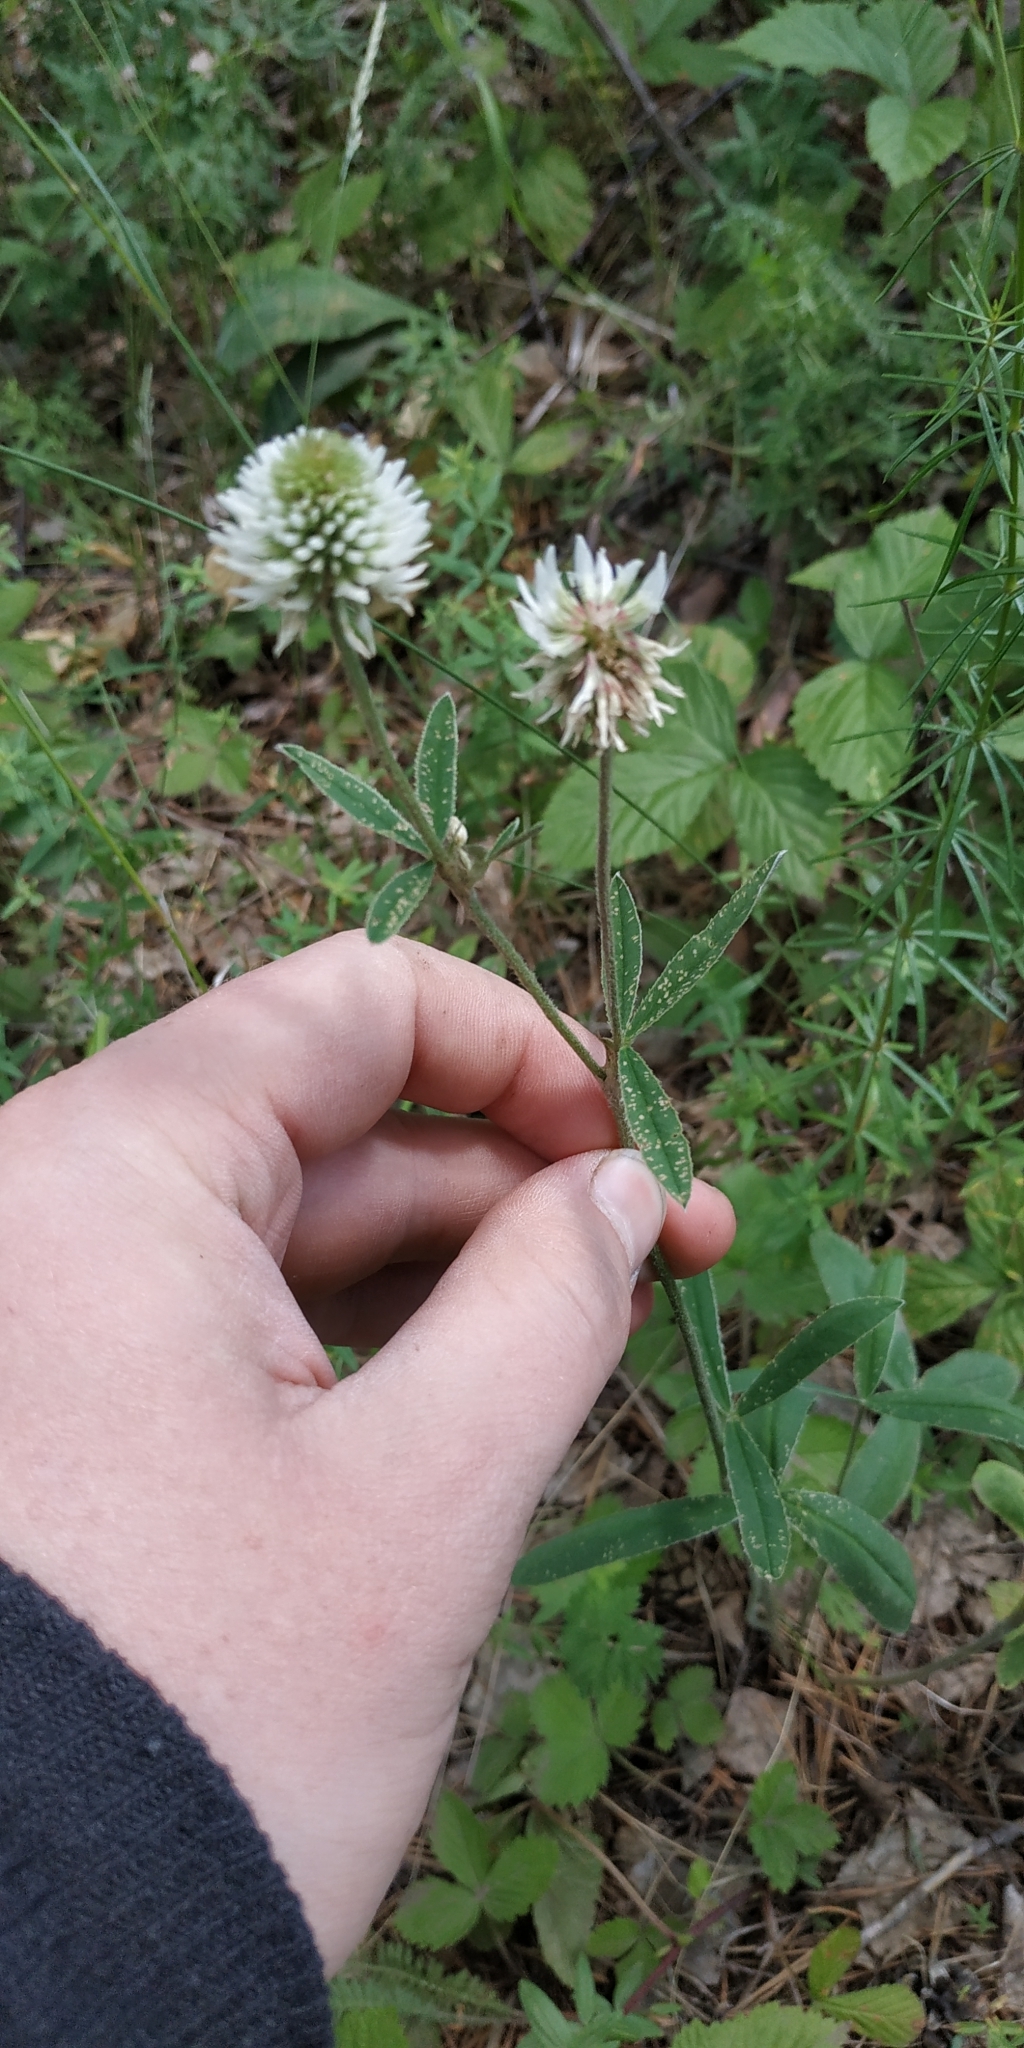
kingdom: Plantae
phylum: Tracheophyta
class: Magnoliopsida
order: Fabales
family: Fabaceae
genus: Trifolium
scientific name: Trifolium montanum
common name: Mountain clover
